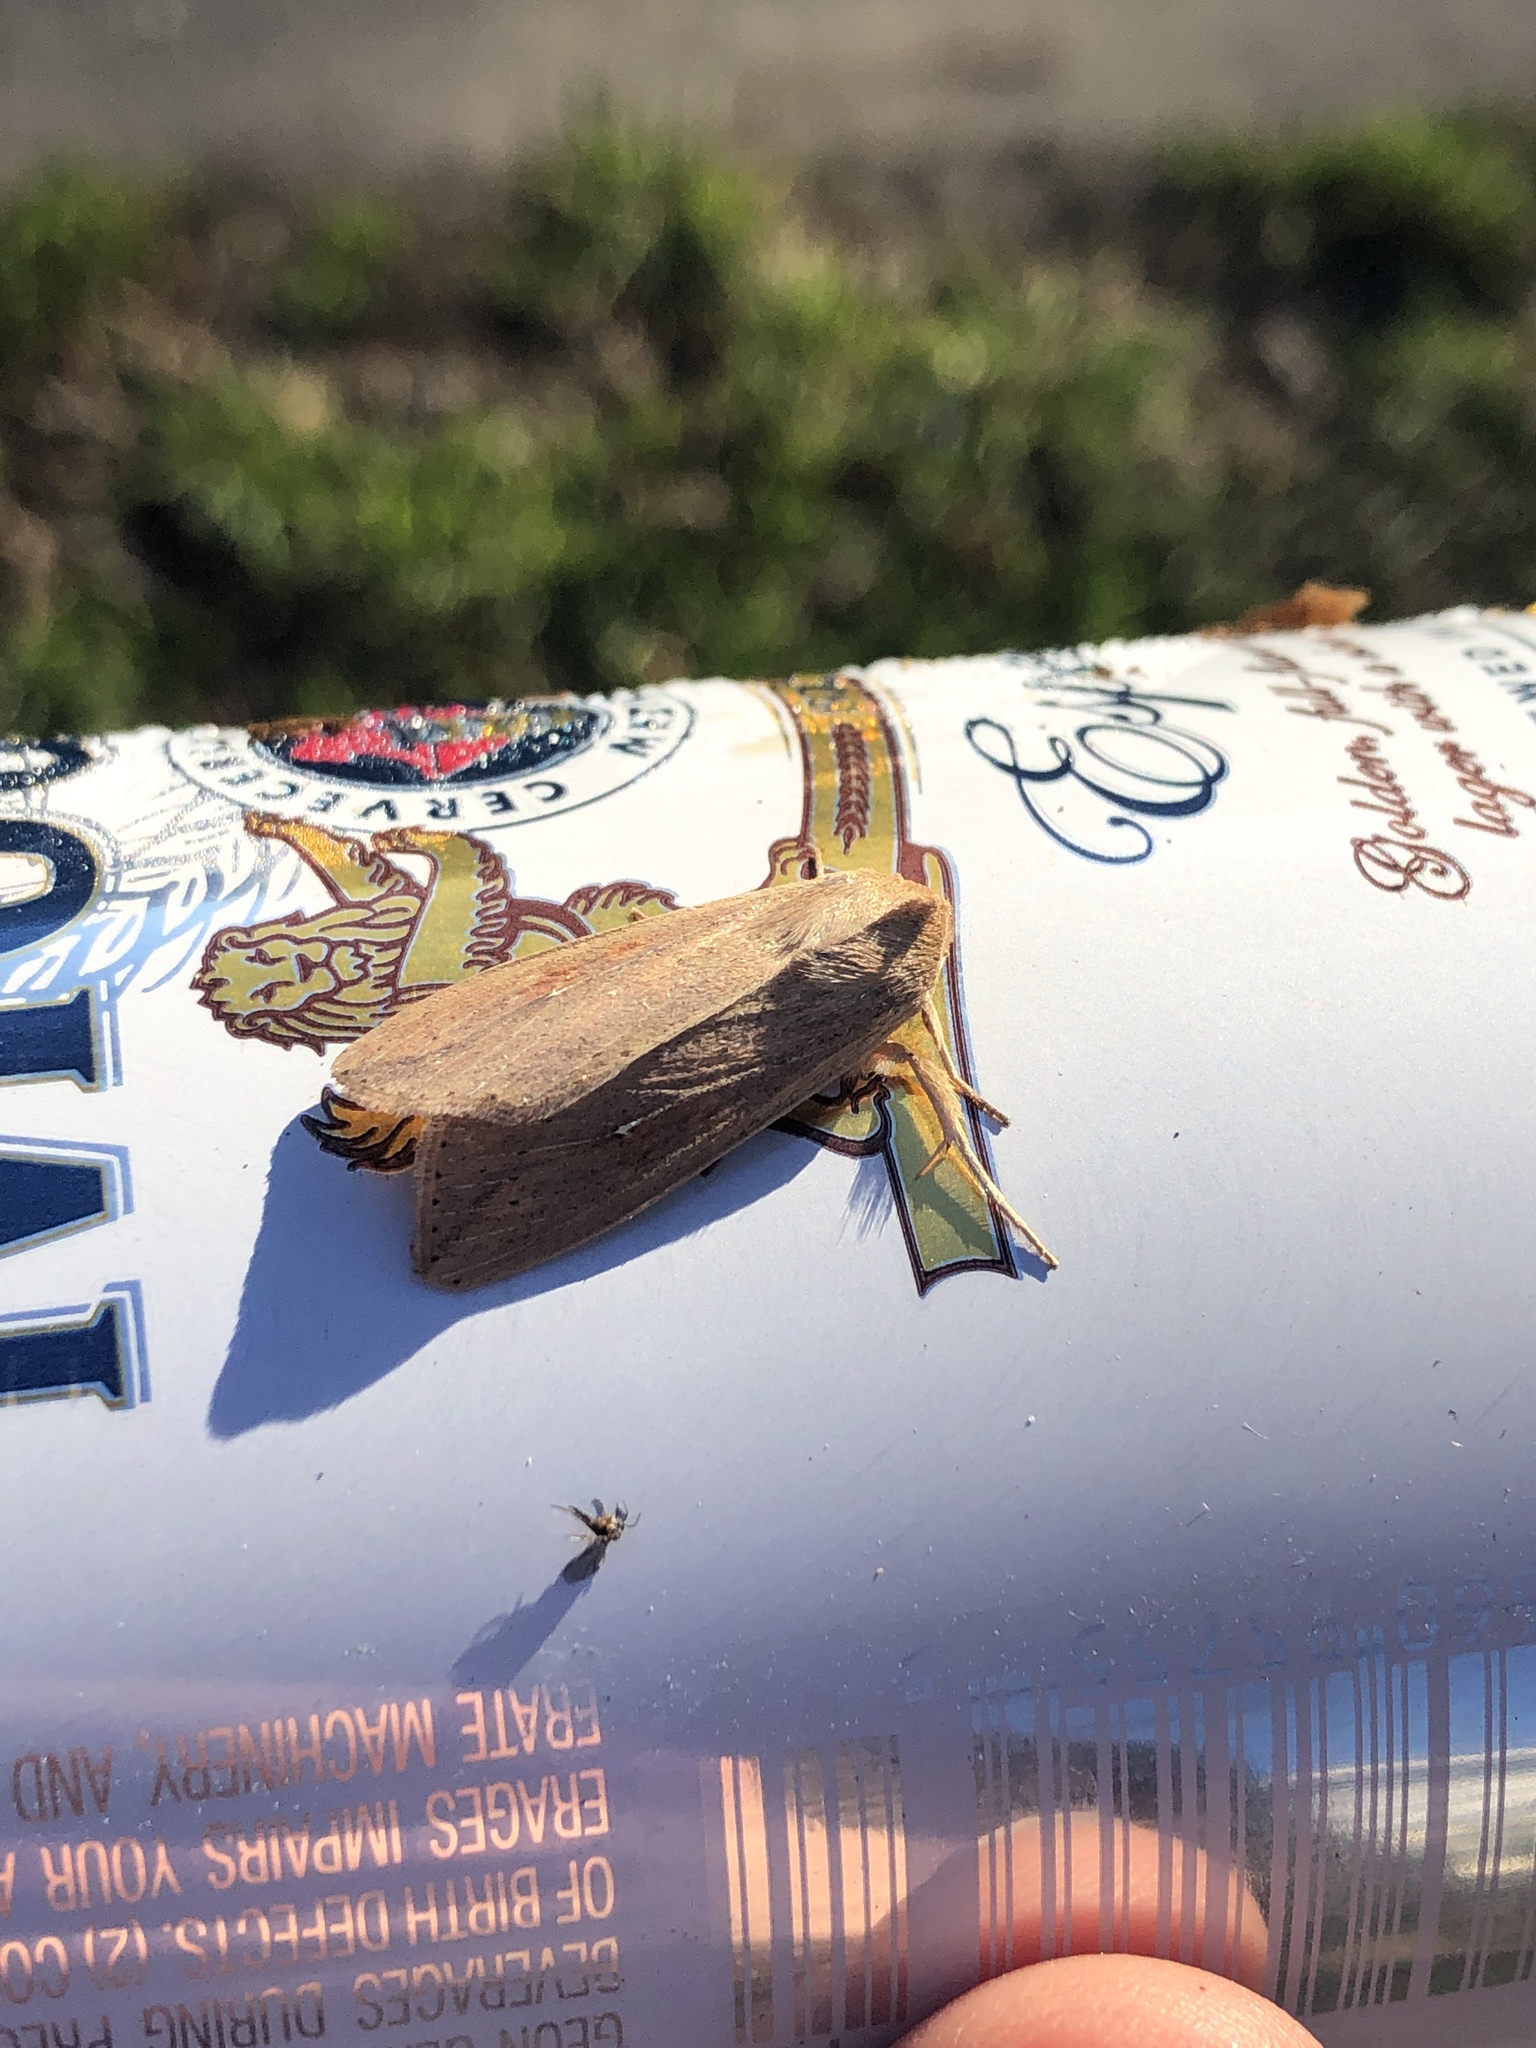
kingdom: Animalia
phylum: Arthropoda
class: Insecta
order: Lepidoptera
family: Noctuidae
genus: Mythimna
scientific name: Mythimna unipuncta
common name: White-speck
